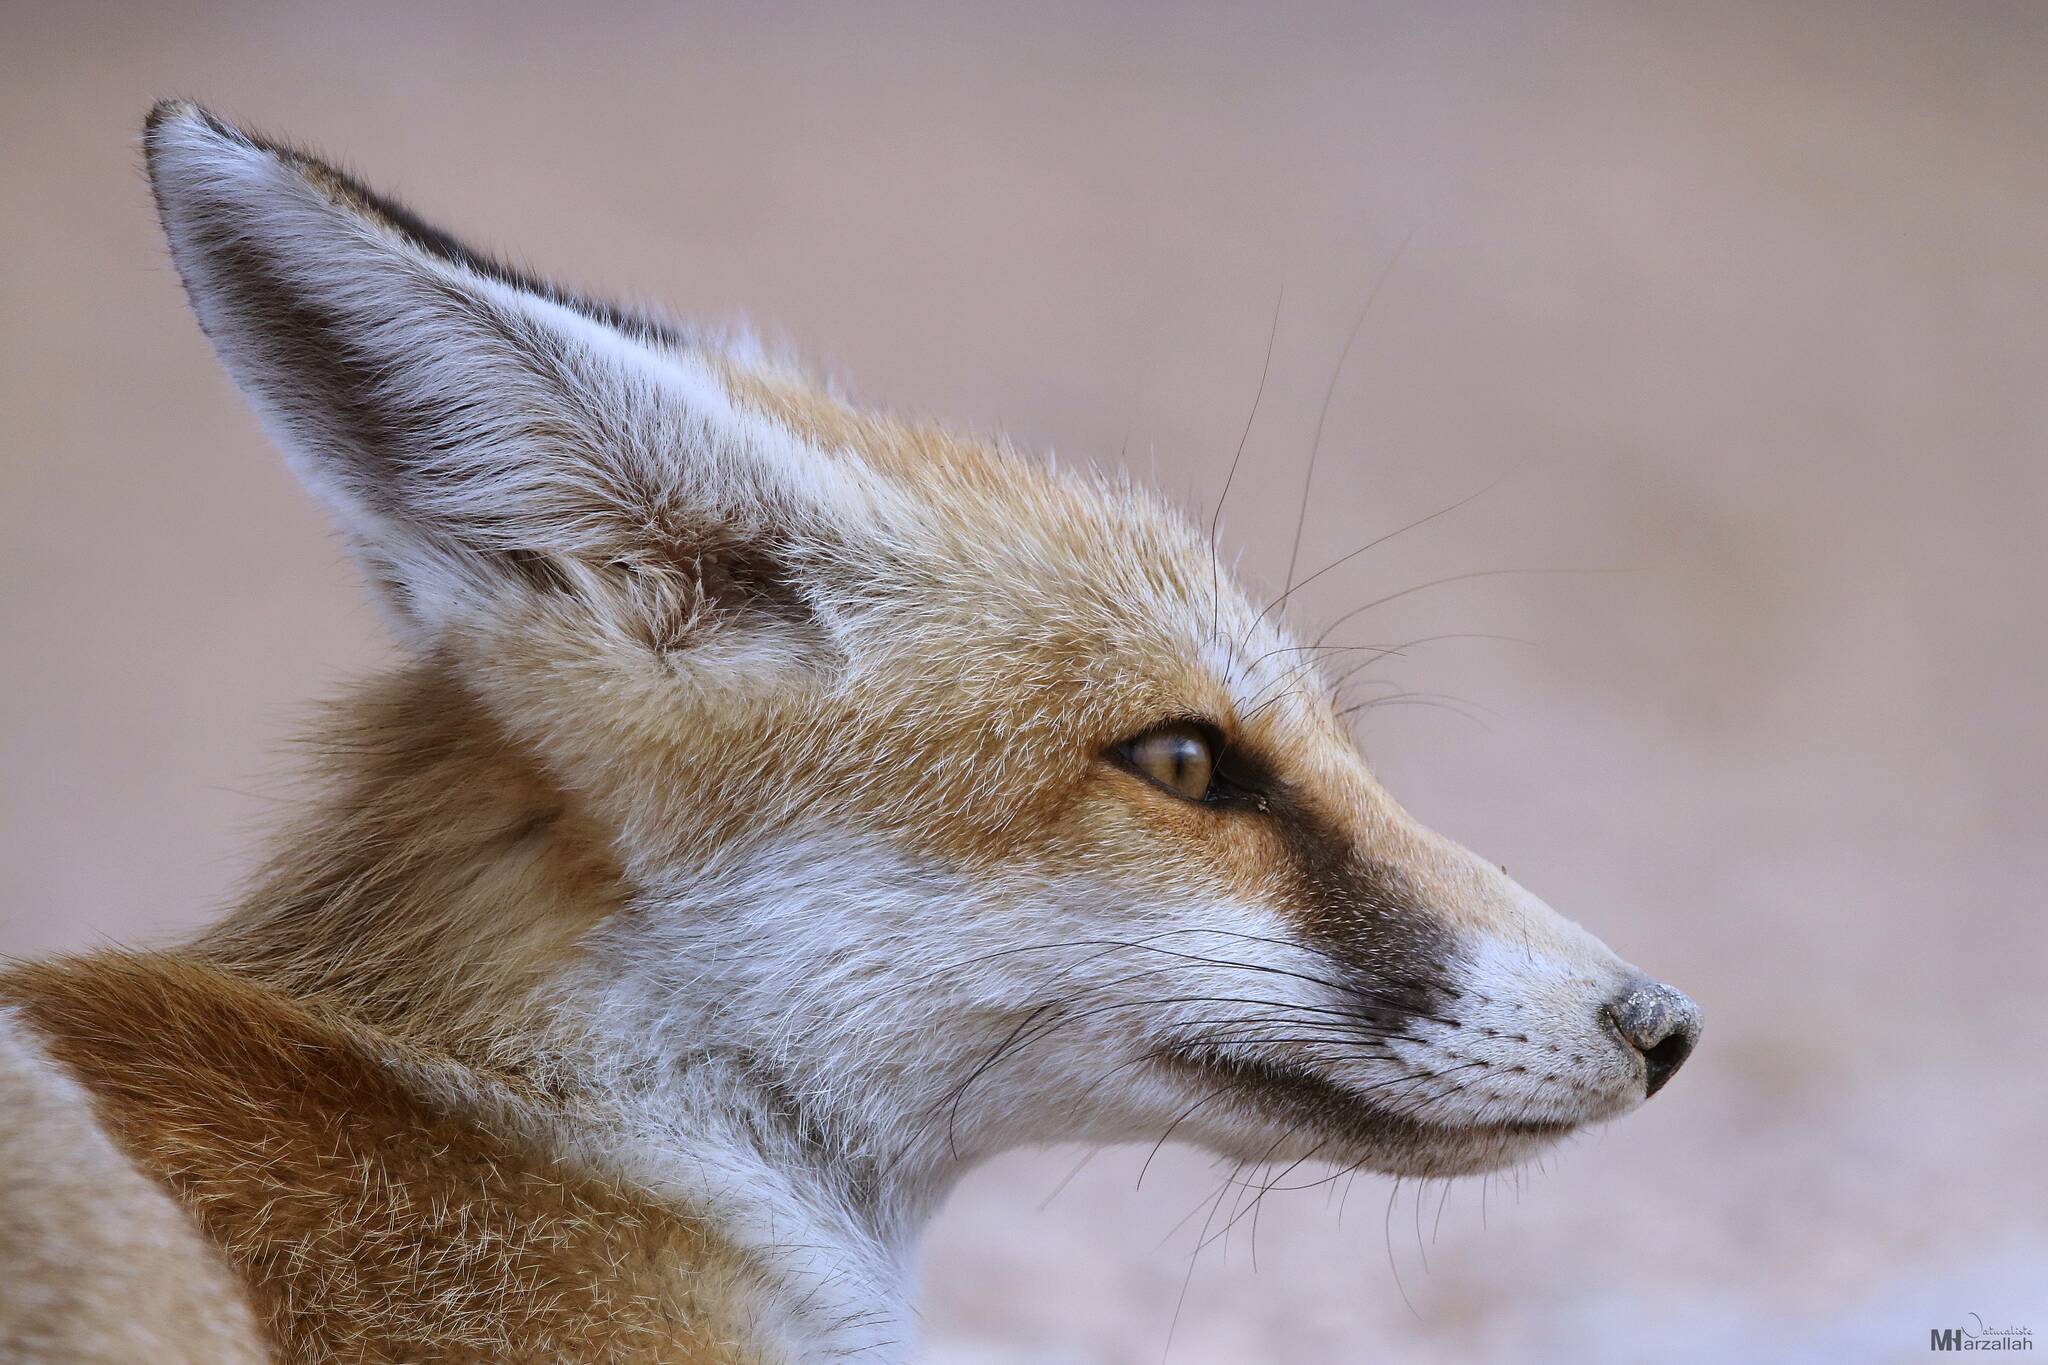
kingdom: Animalia
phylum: Chordata
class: Mammalia
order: Carnivora
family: Canidae
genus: Vulpes
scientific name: Vulpes vulpes
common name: Red fox
